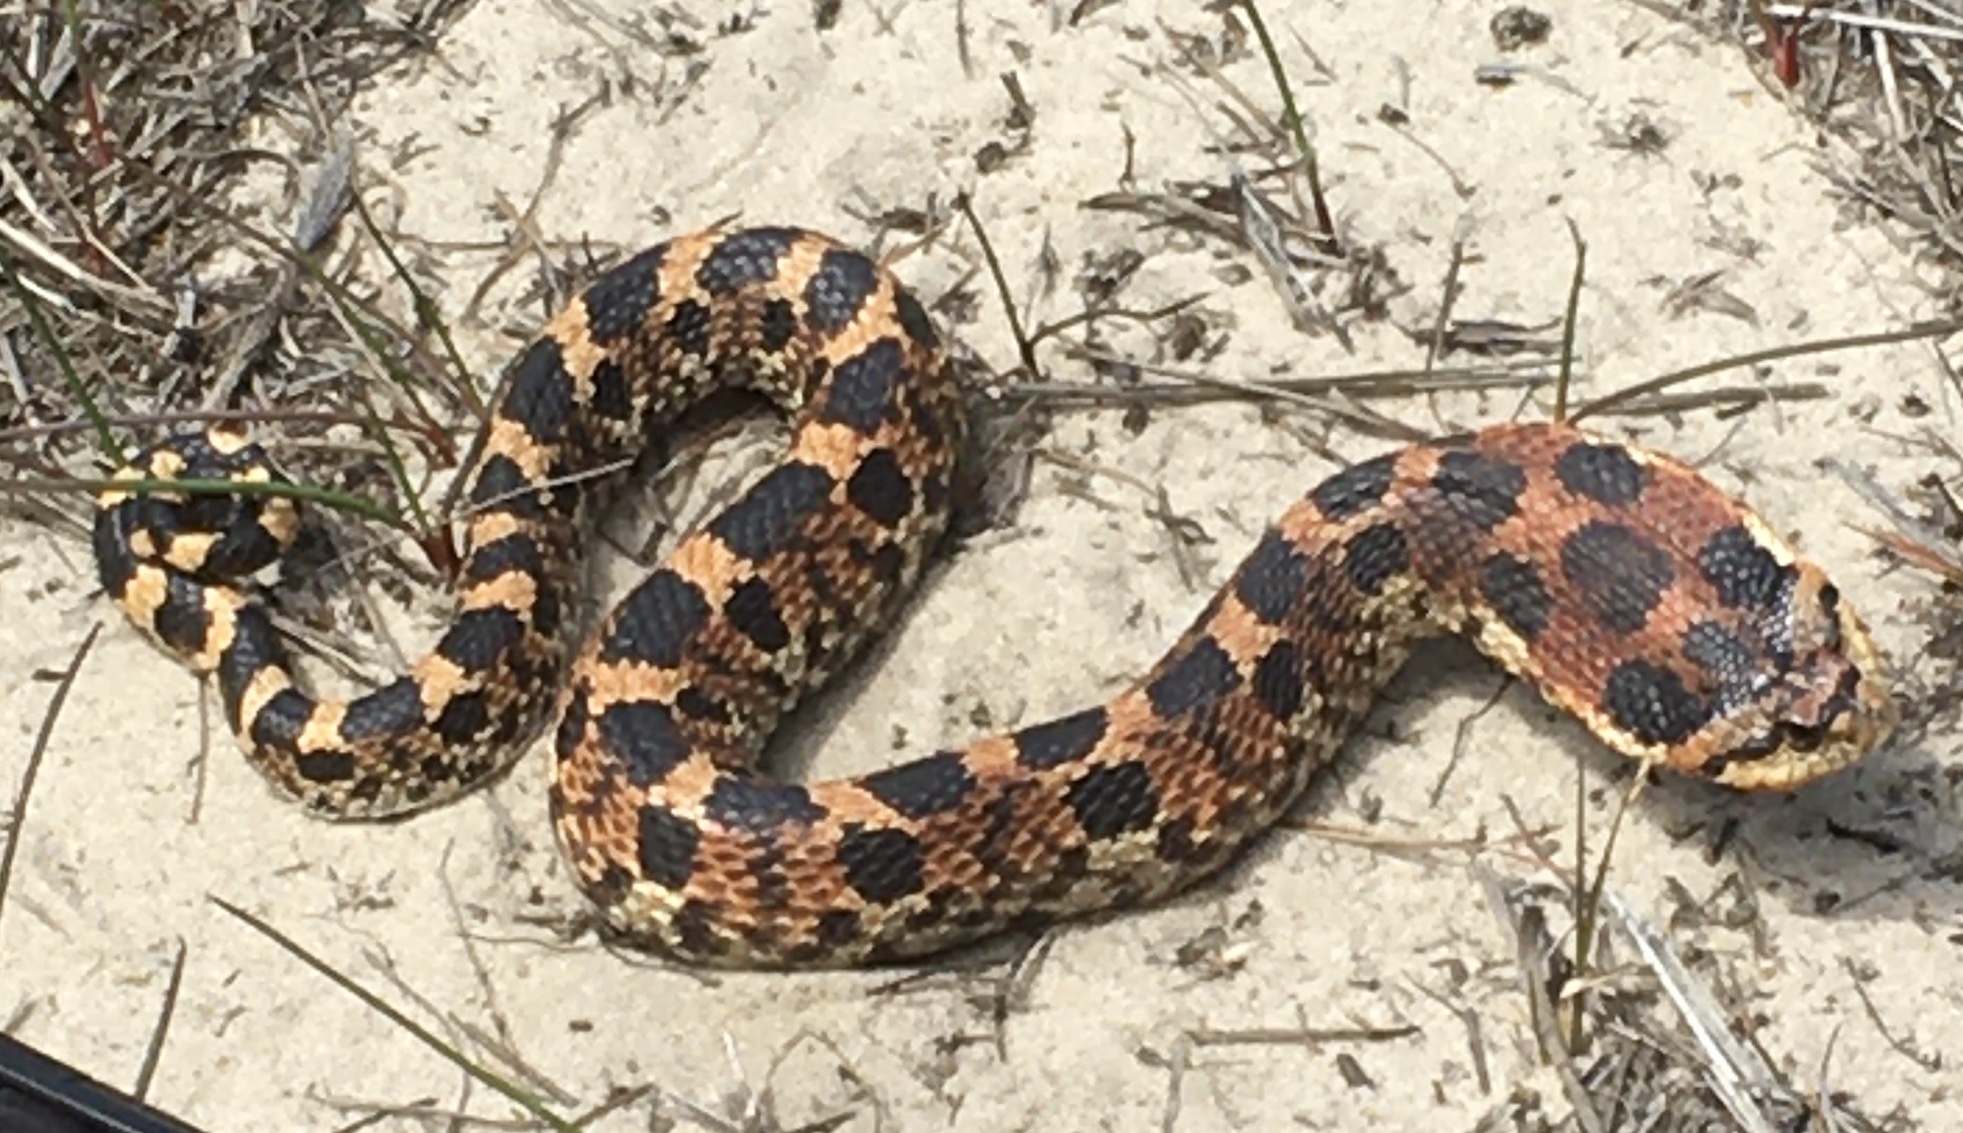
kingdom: Animalia
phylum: Chordata
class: Squamata
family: Colubridae
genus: Heterodon
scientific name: Heterodon platirhinos
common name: Eastern hognose snake
